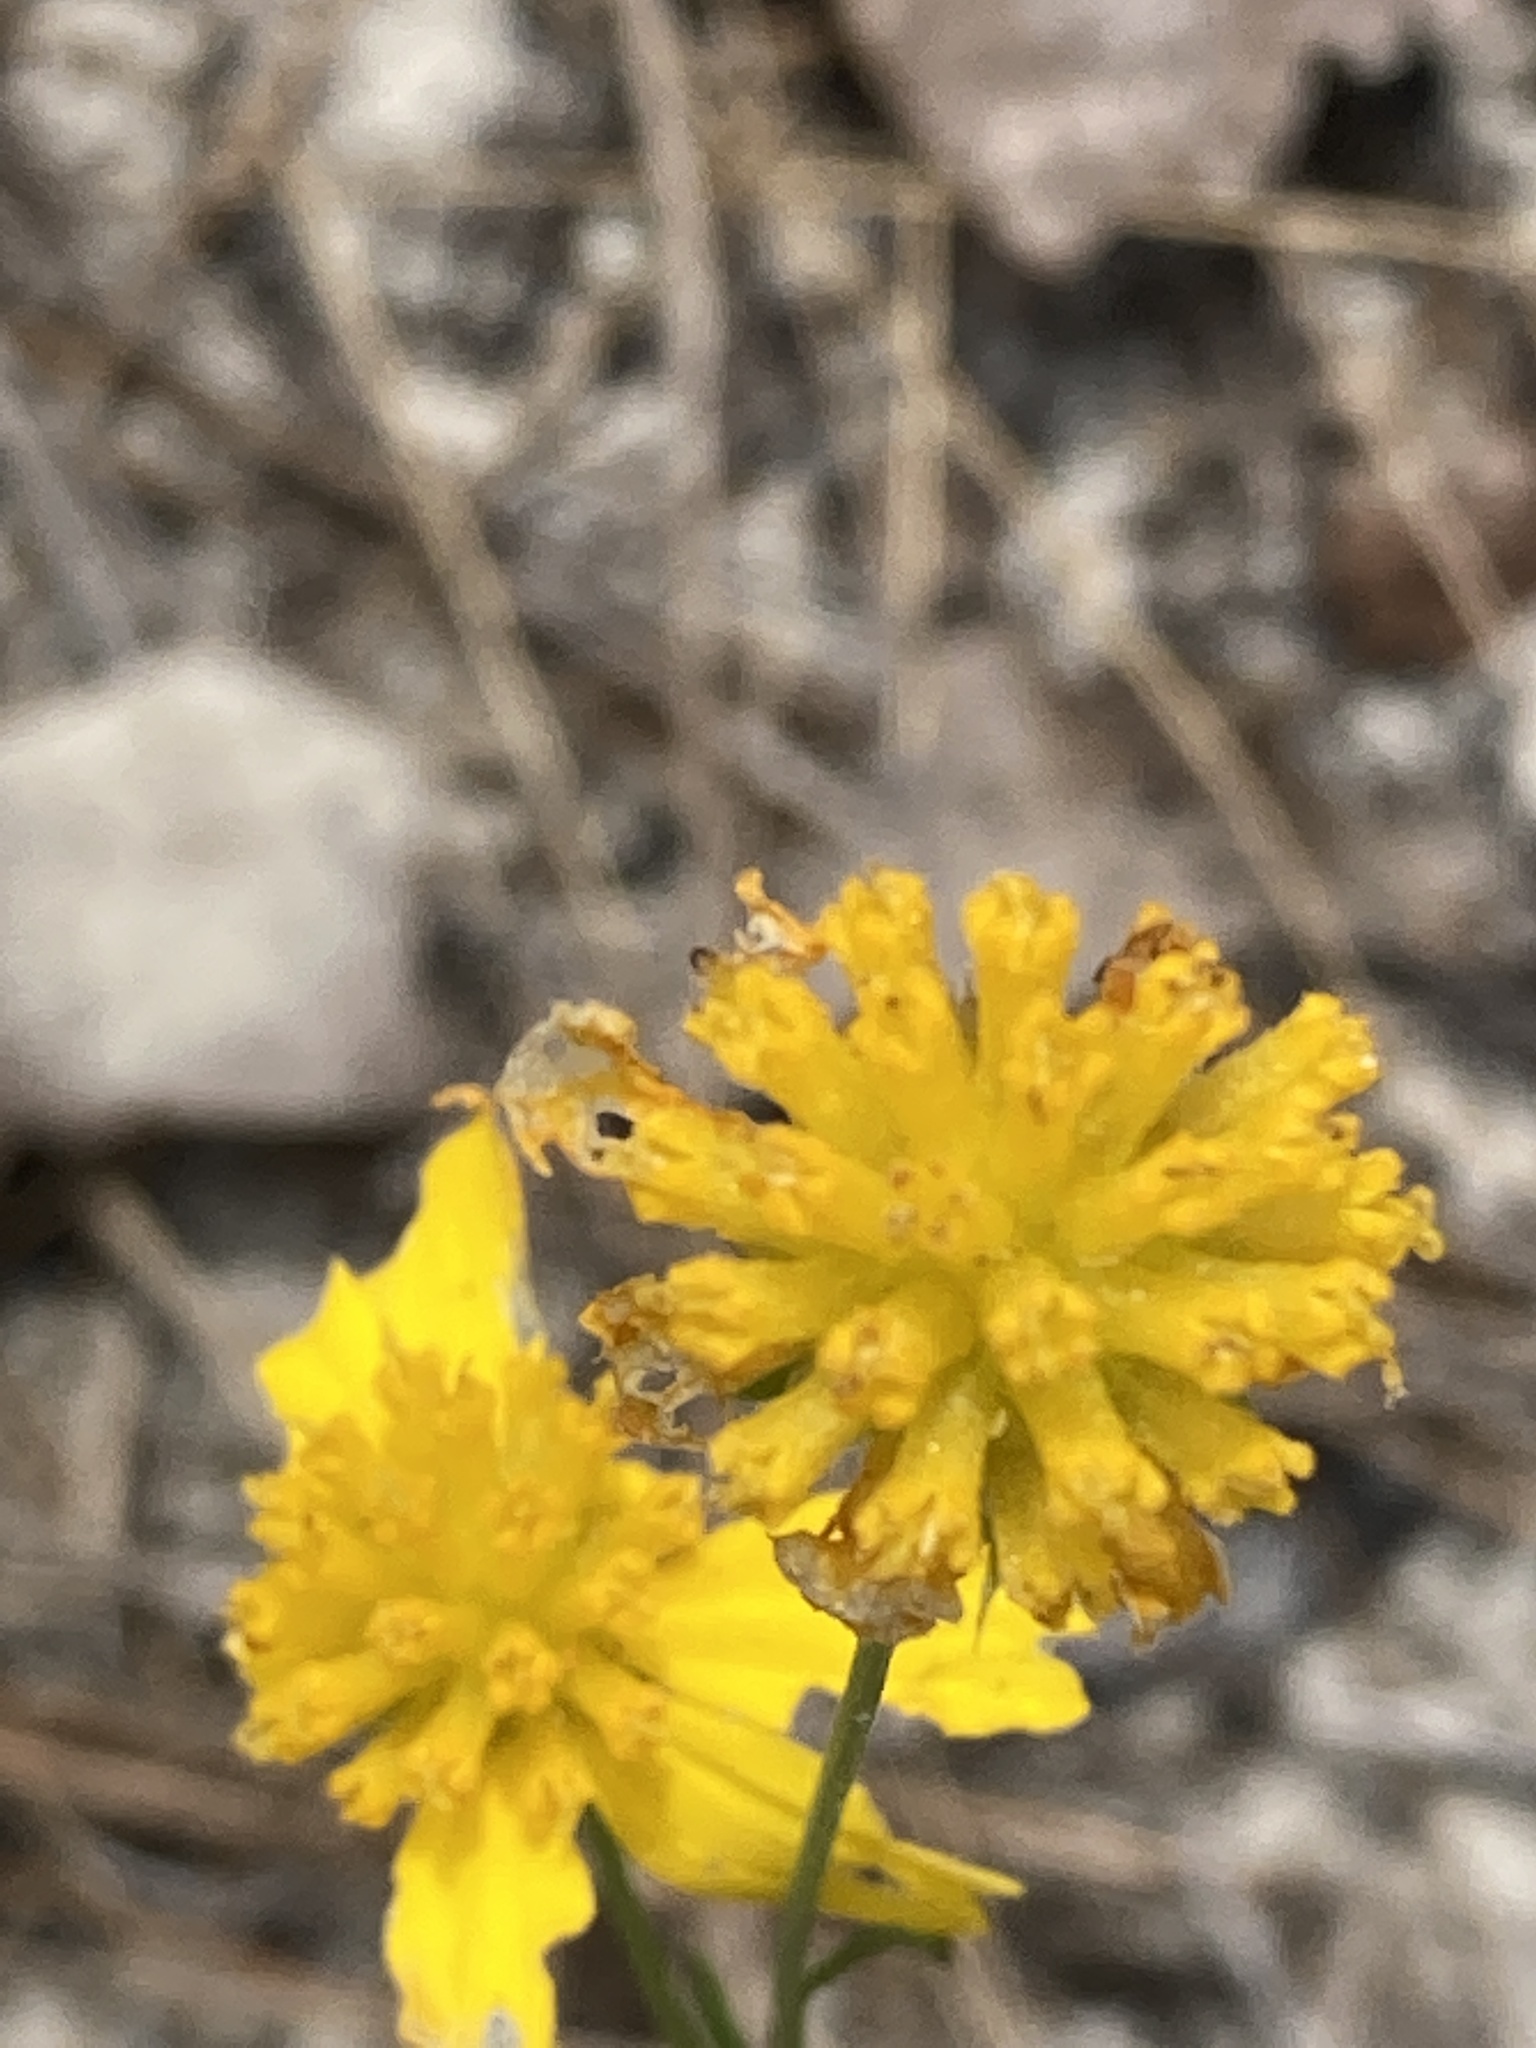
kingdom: Plantae
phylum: Tracheophyta
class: Magnoliopsida
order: Asterales
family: Asteraceae
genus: Balduina
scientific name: Balduina angustifolia
